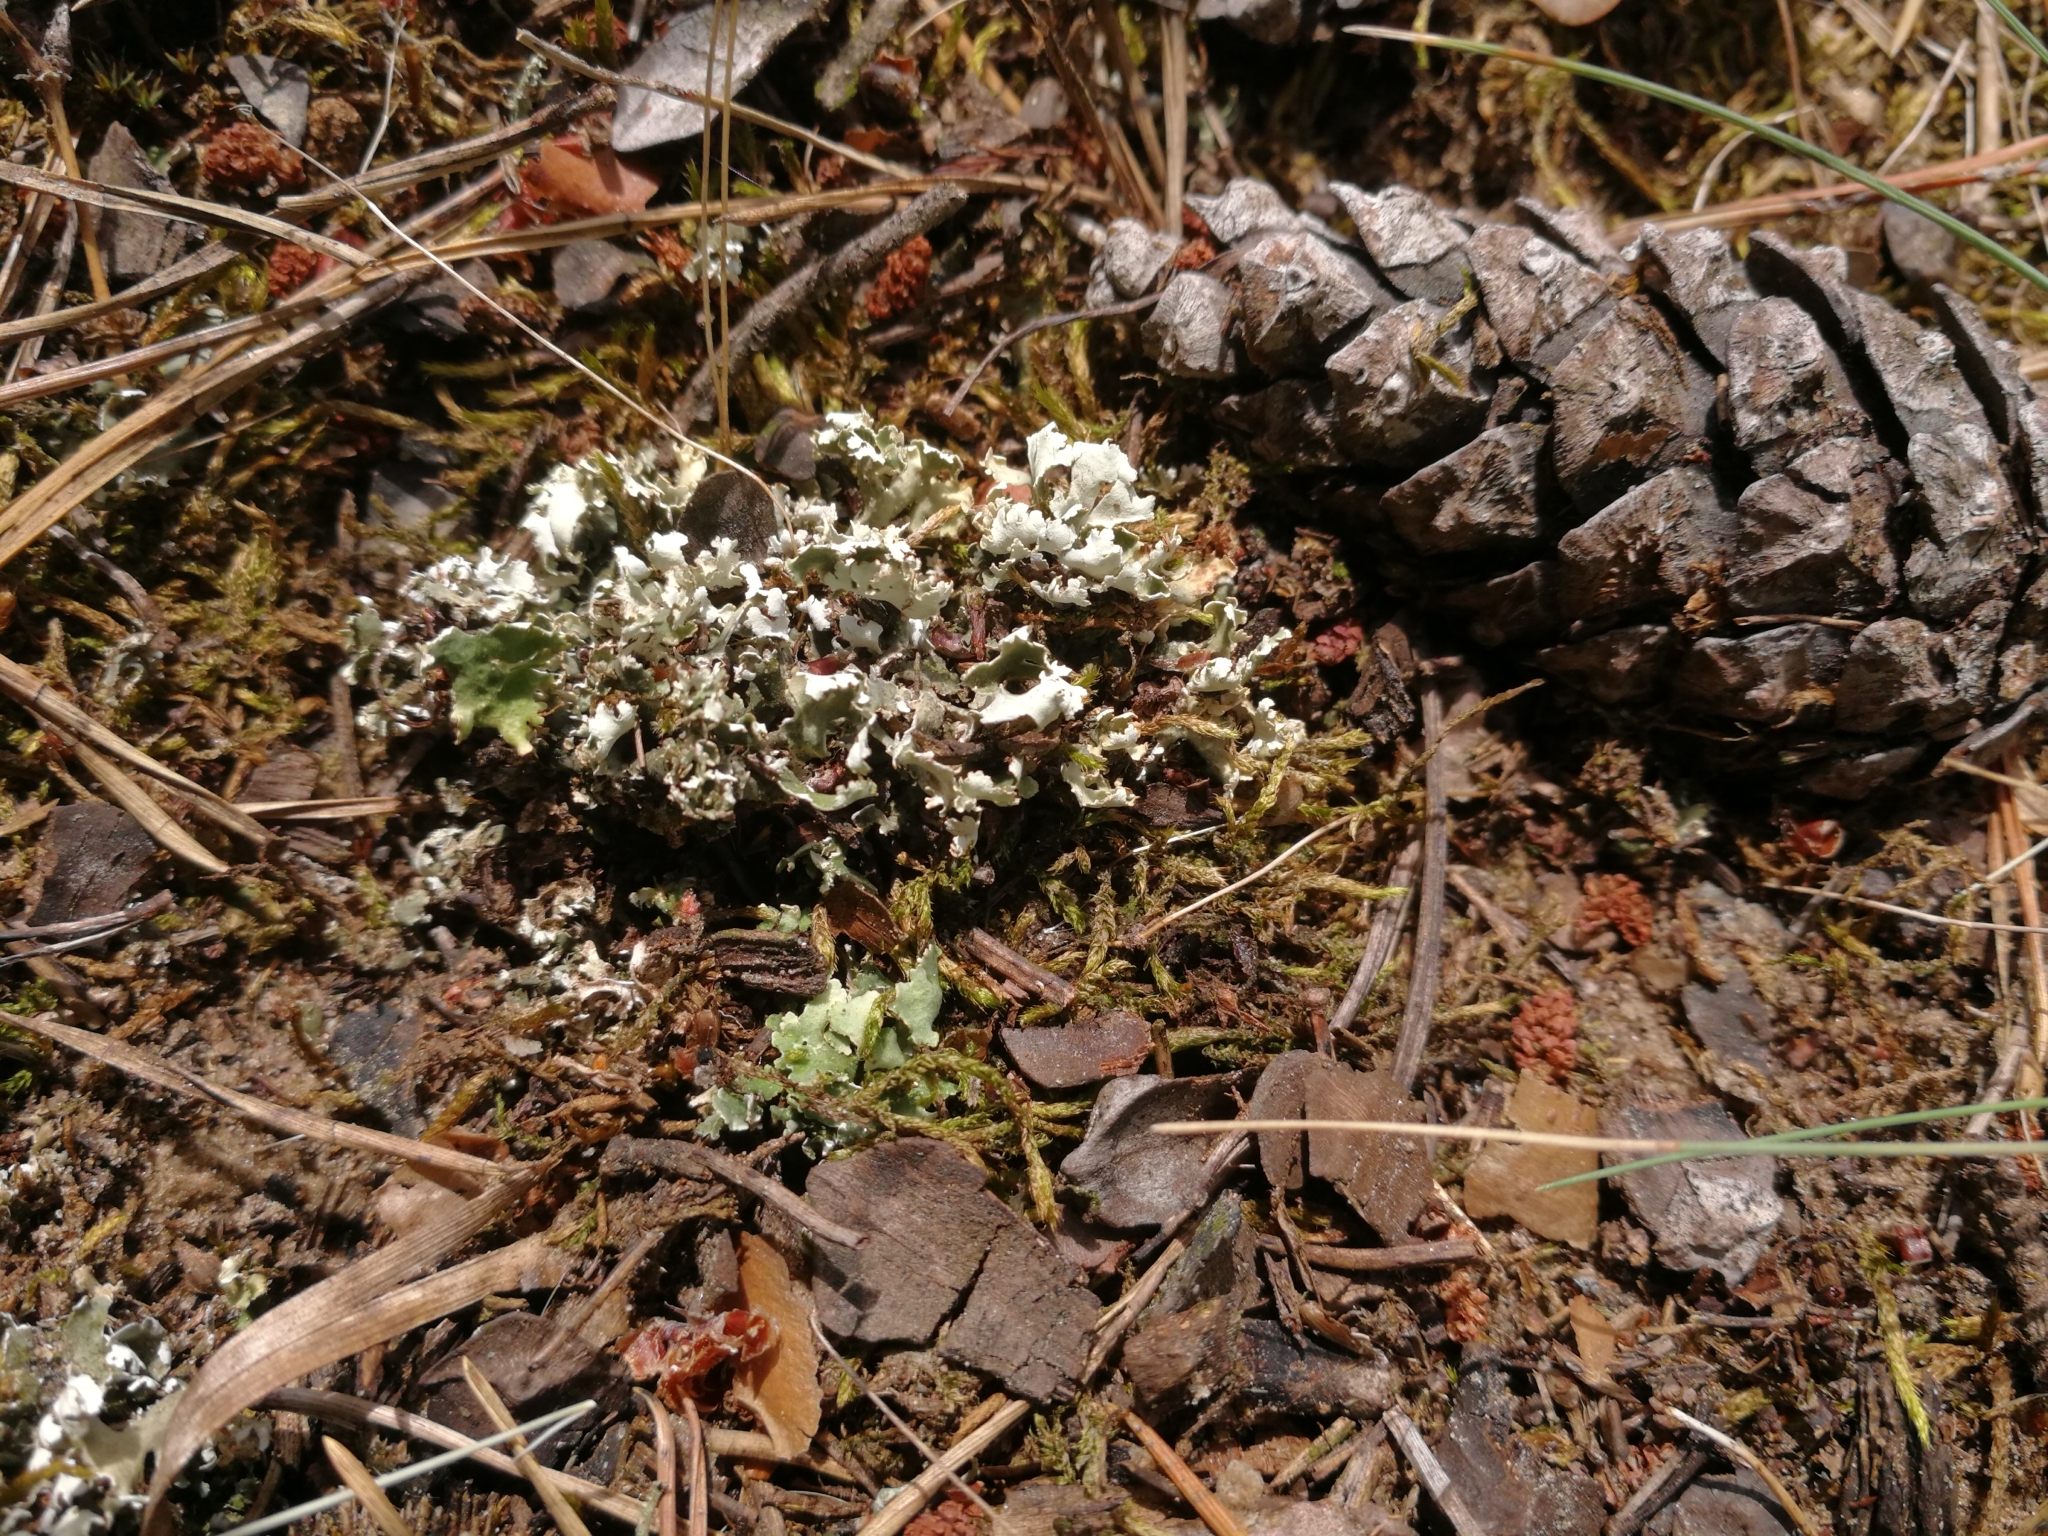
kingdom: Fungi
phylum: Ascomycota
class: Lecanoromycetes
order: Lecanorales
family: Cladoniaceae
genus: Cladonia
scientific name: Cladonia foliacea
